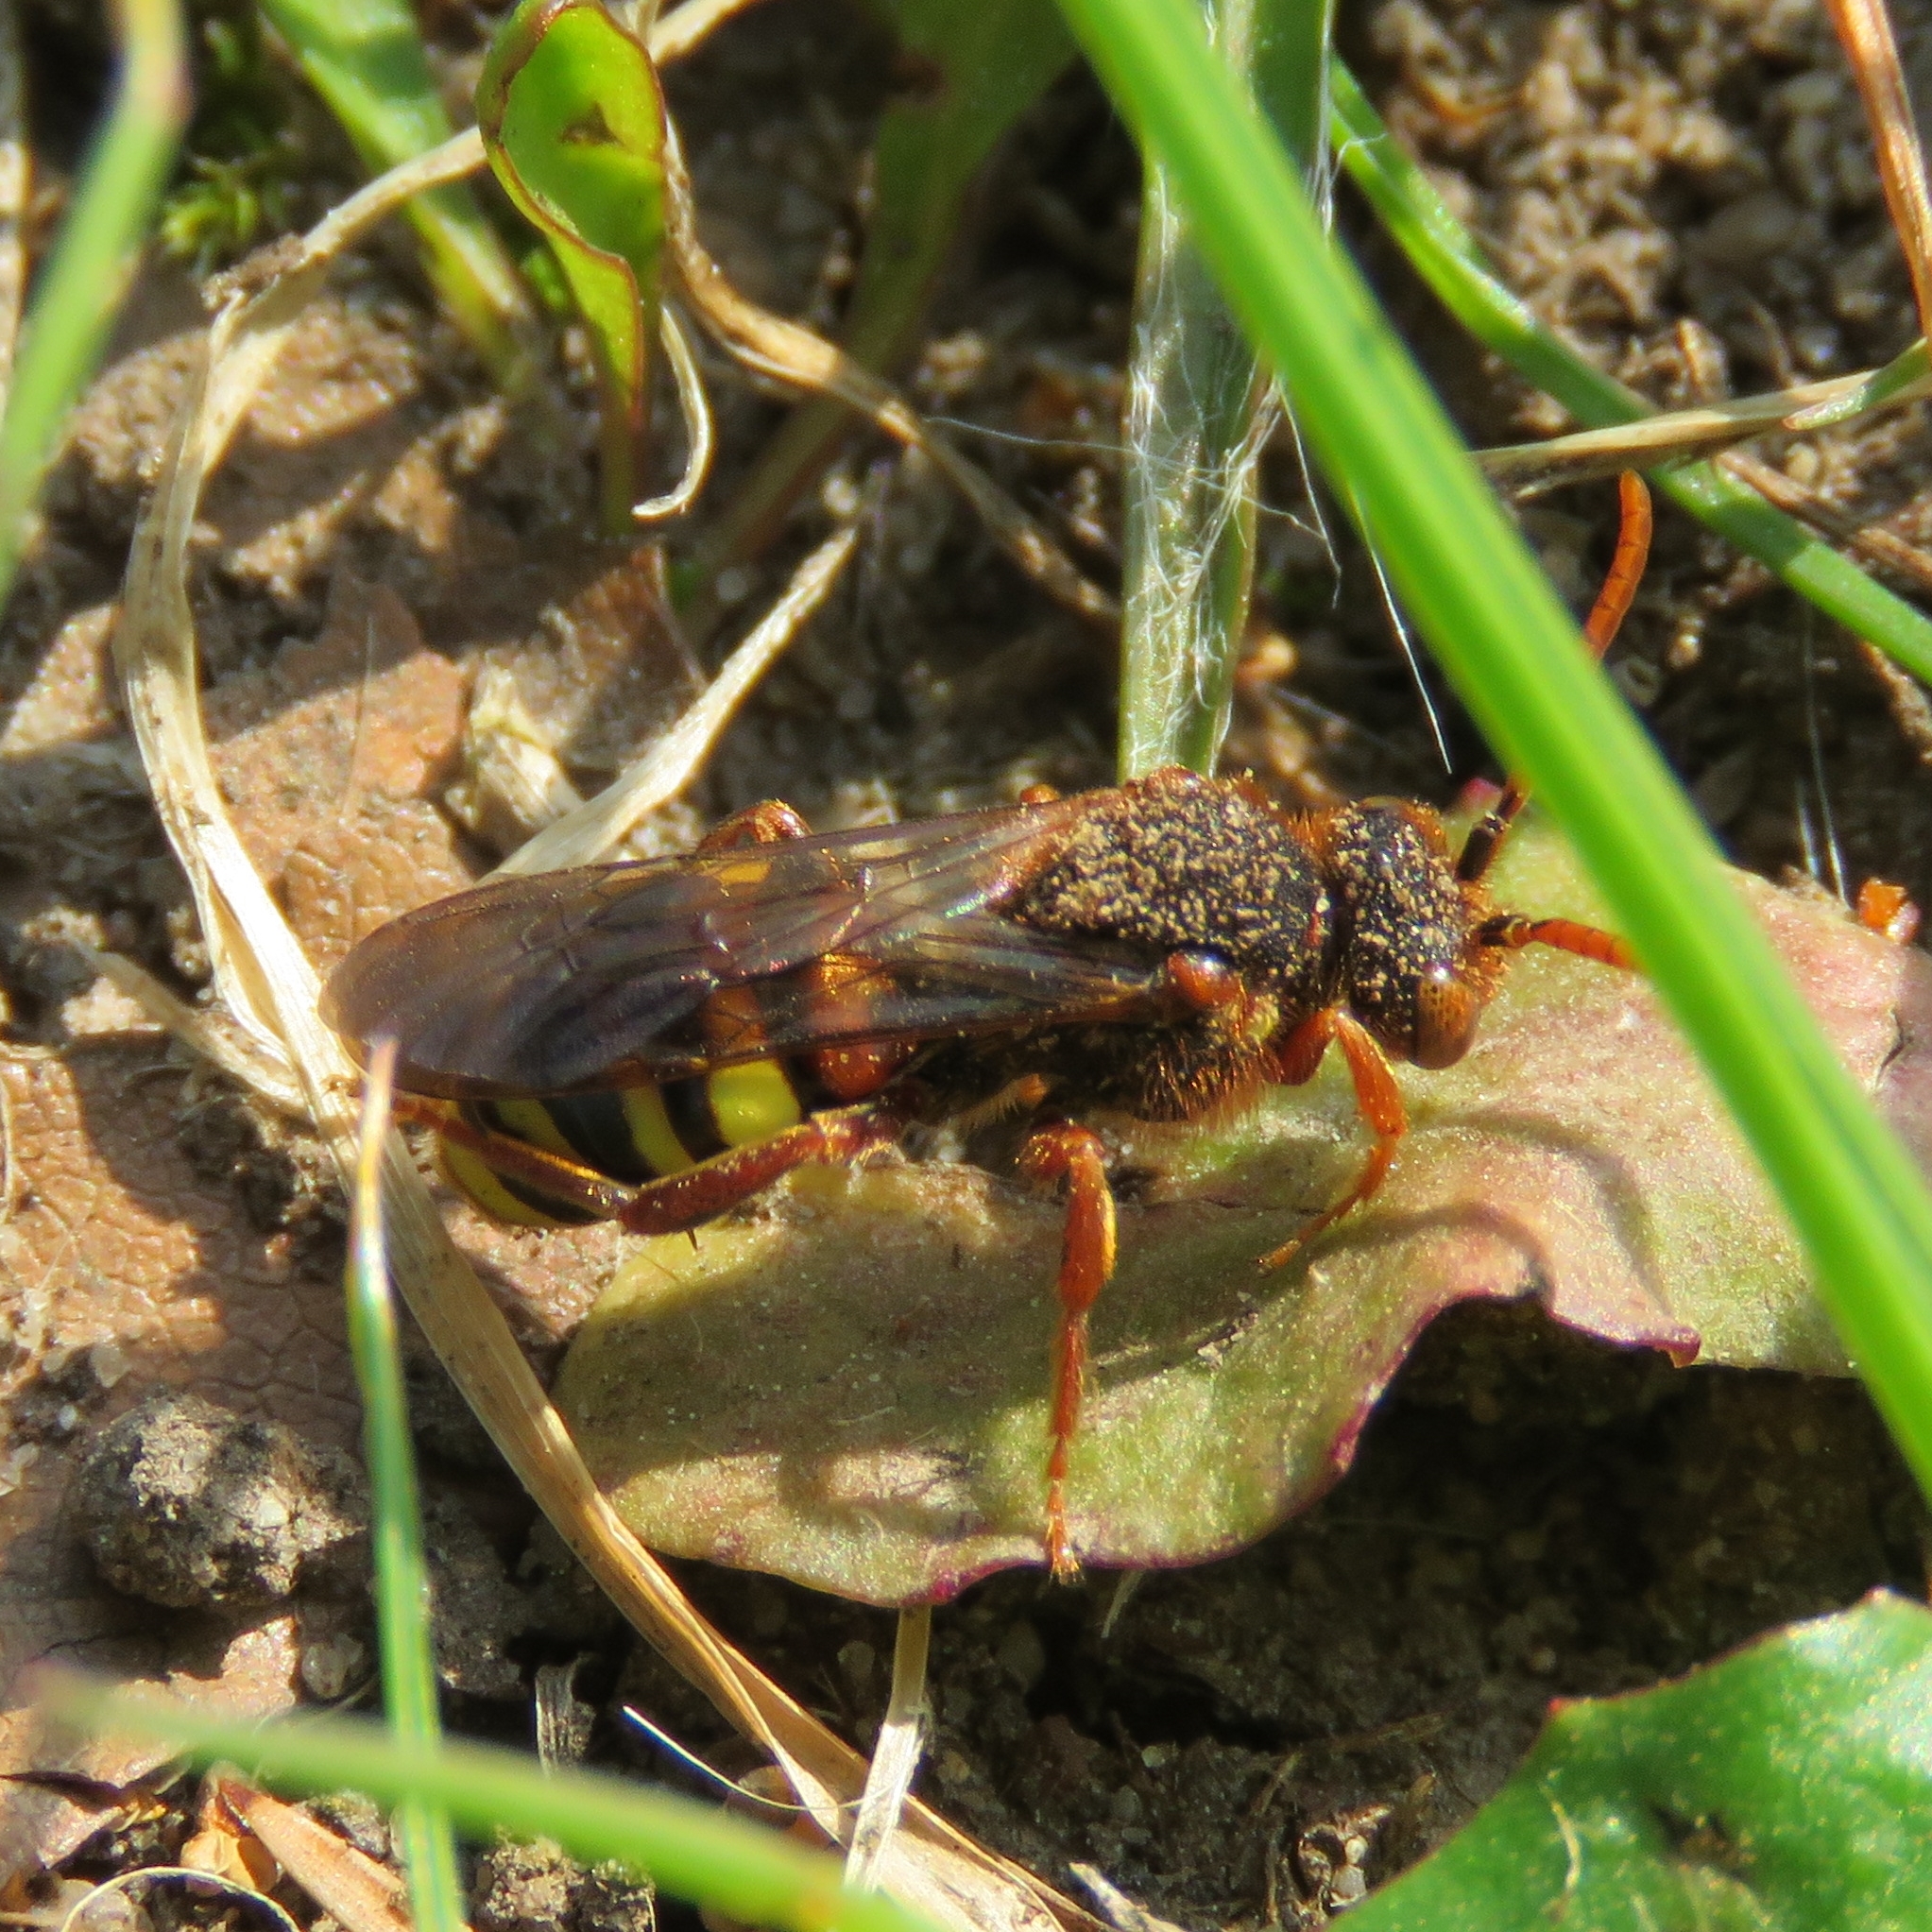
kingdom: Animalia
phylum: Arthropoda
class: Insecta
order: Hymenoptera
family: Apidae
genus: Nomada
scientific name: Nomada lathburiana
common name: Lathbury's nomad bee
